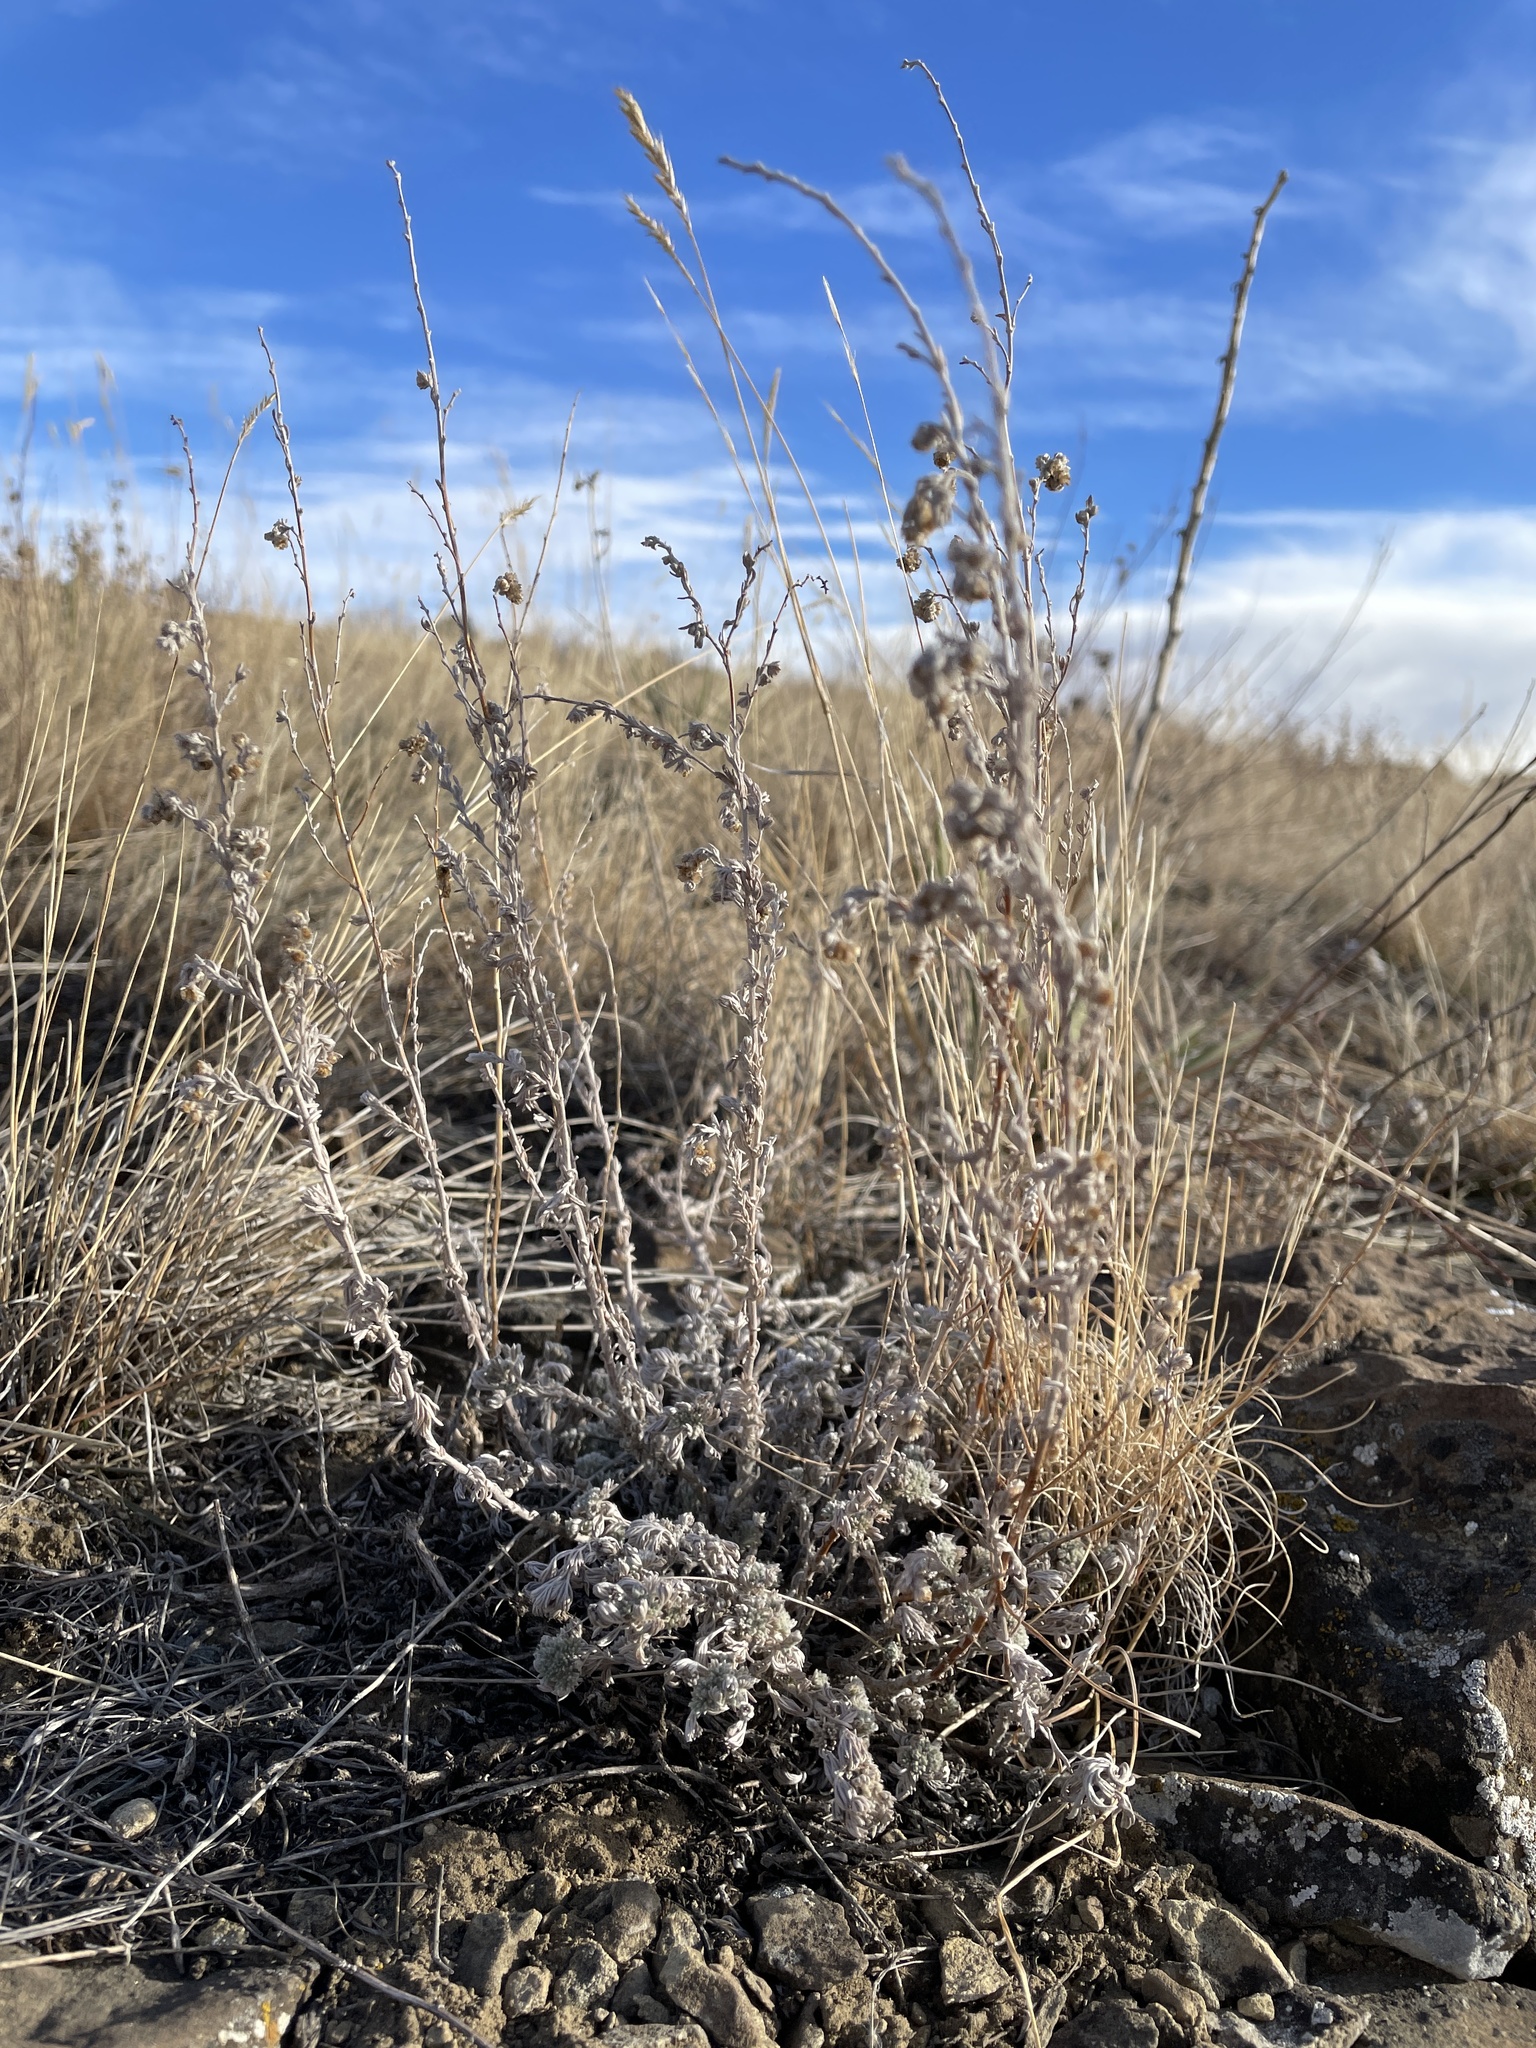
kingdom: Plantae
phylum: Tracheophyta
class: Magnoliopsida
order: Asterales
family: Asteraceae
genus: Artemisia
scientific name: Artemisia frigida
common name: Prairie sagewort
